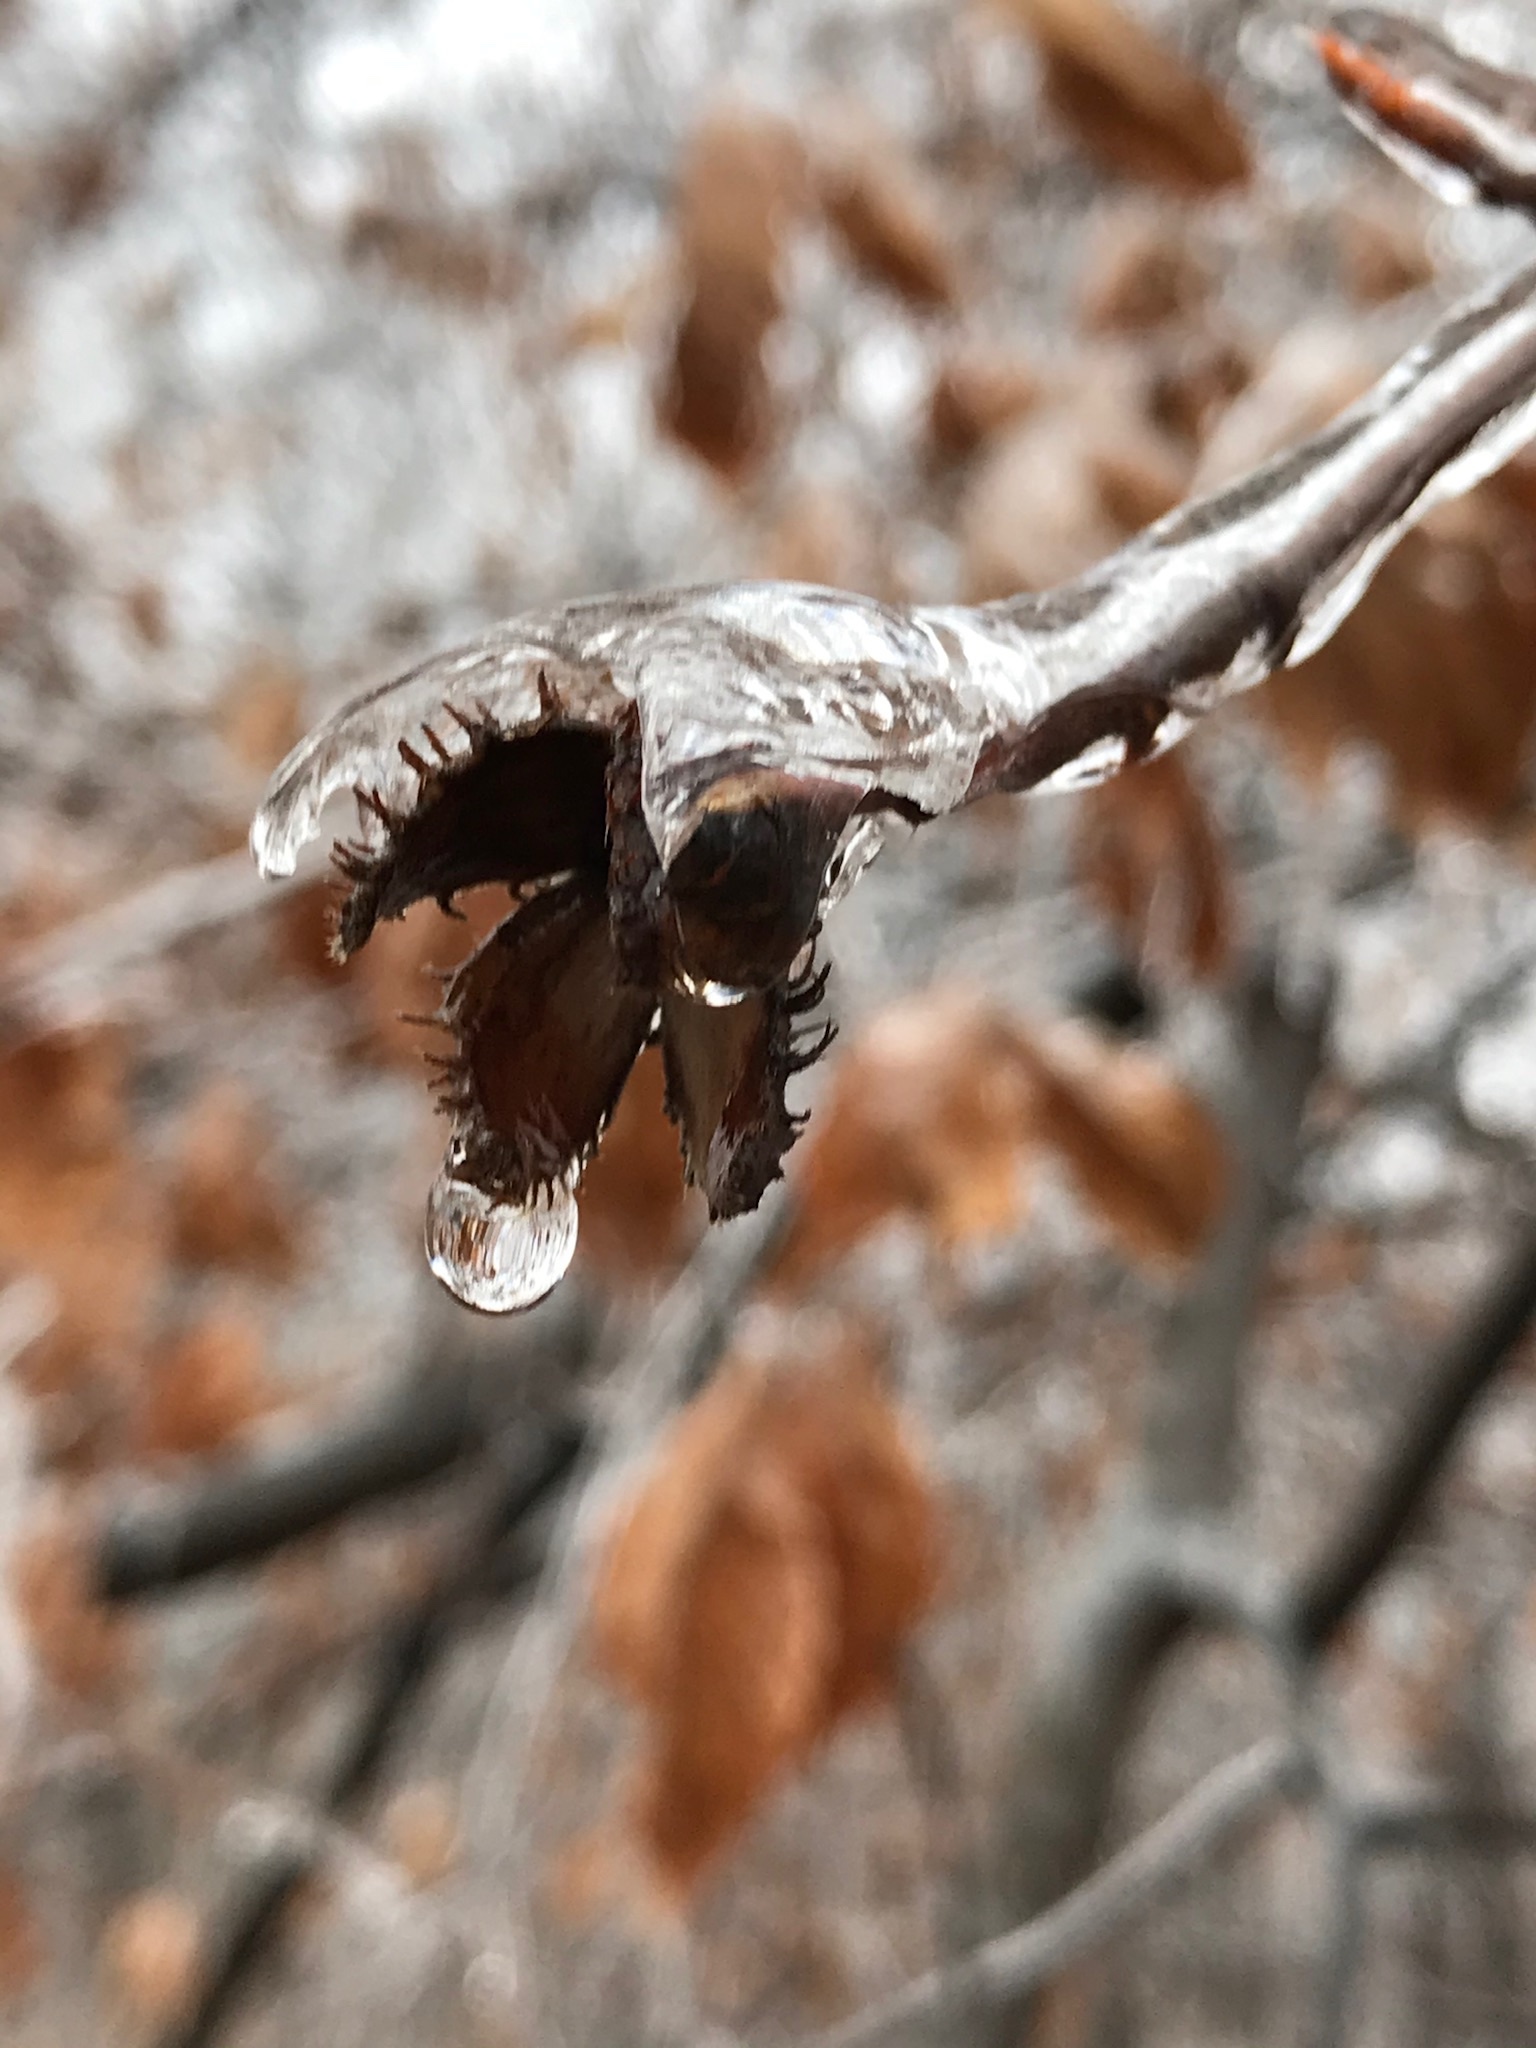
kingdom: Plantae
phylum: Tracheophyta
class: Magnoliopsida
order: Fagales
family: Fagaceae
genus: Fagus
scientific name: Fagus grandifolia
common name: American beech
